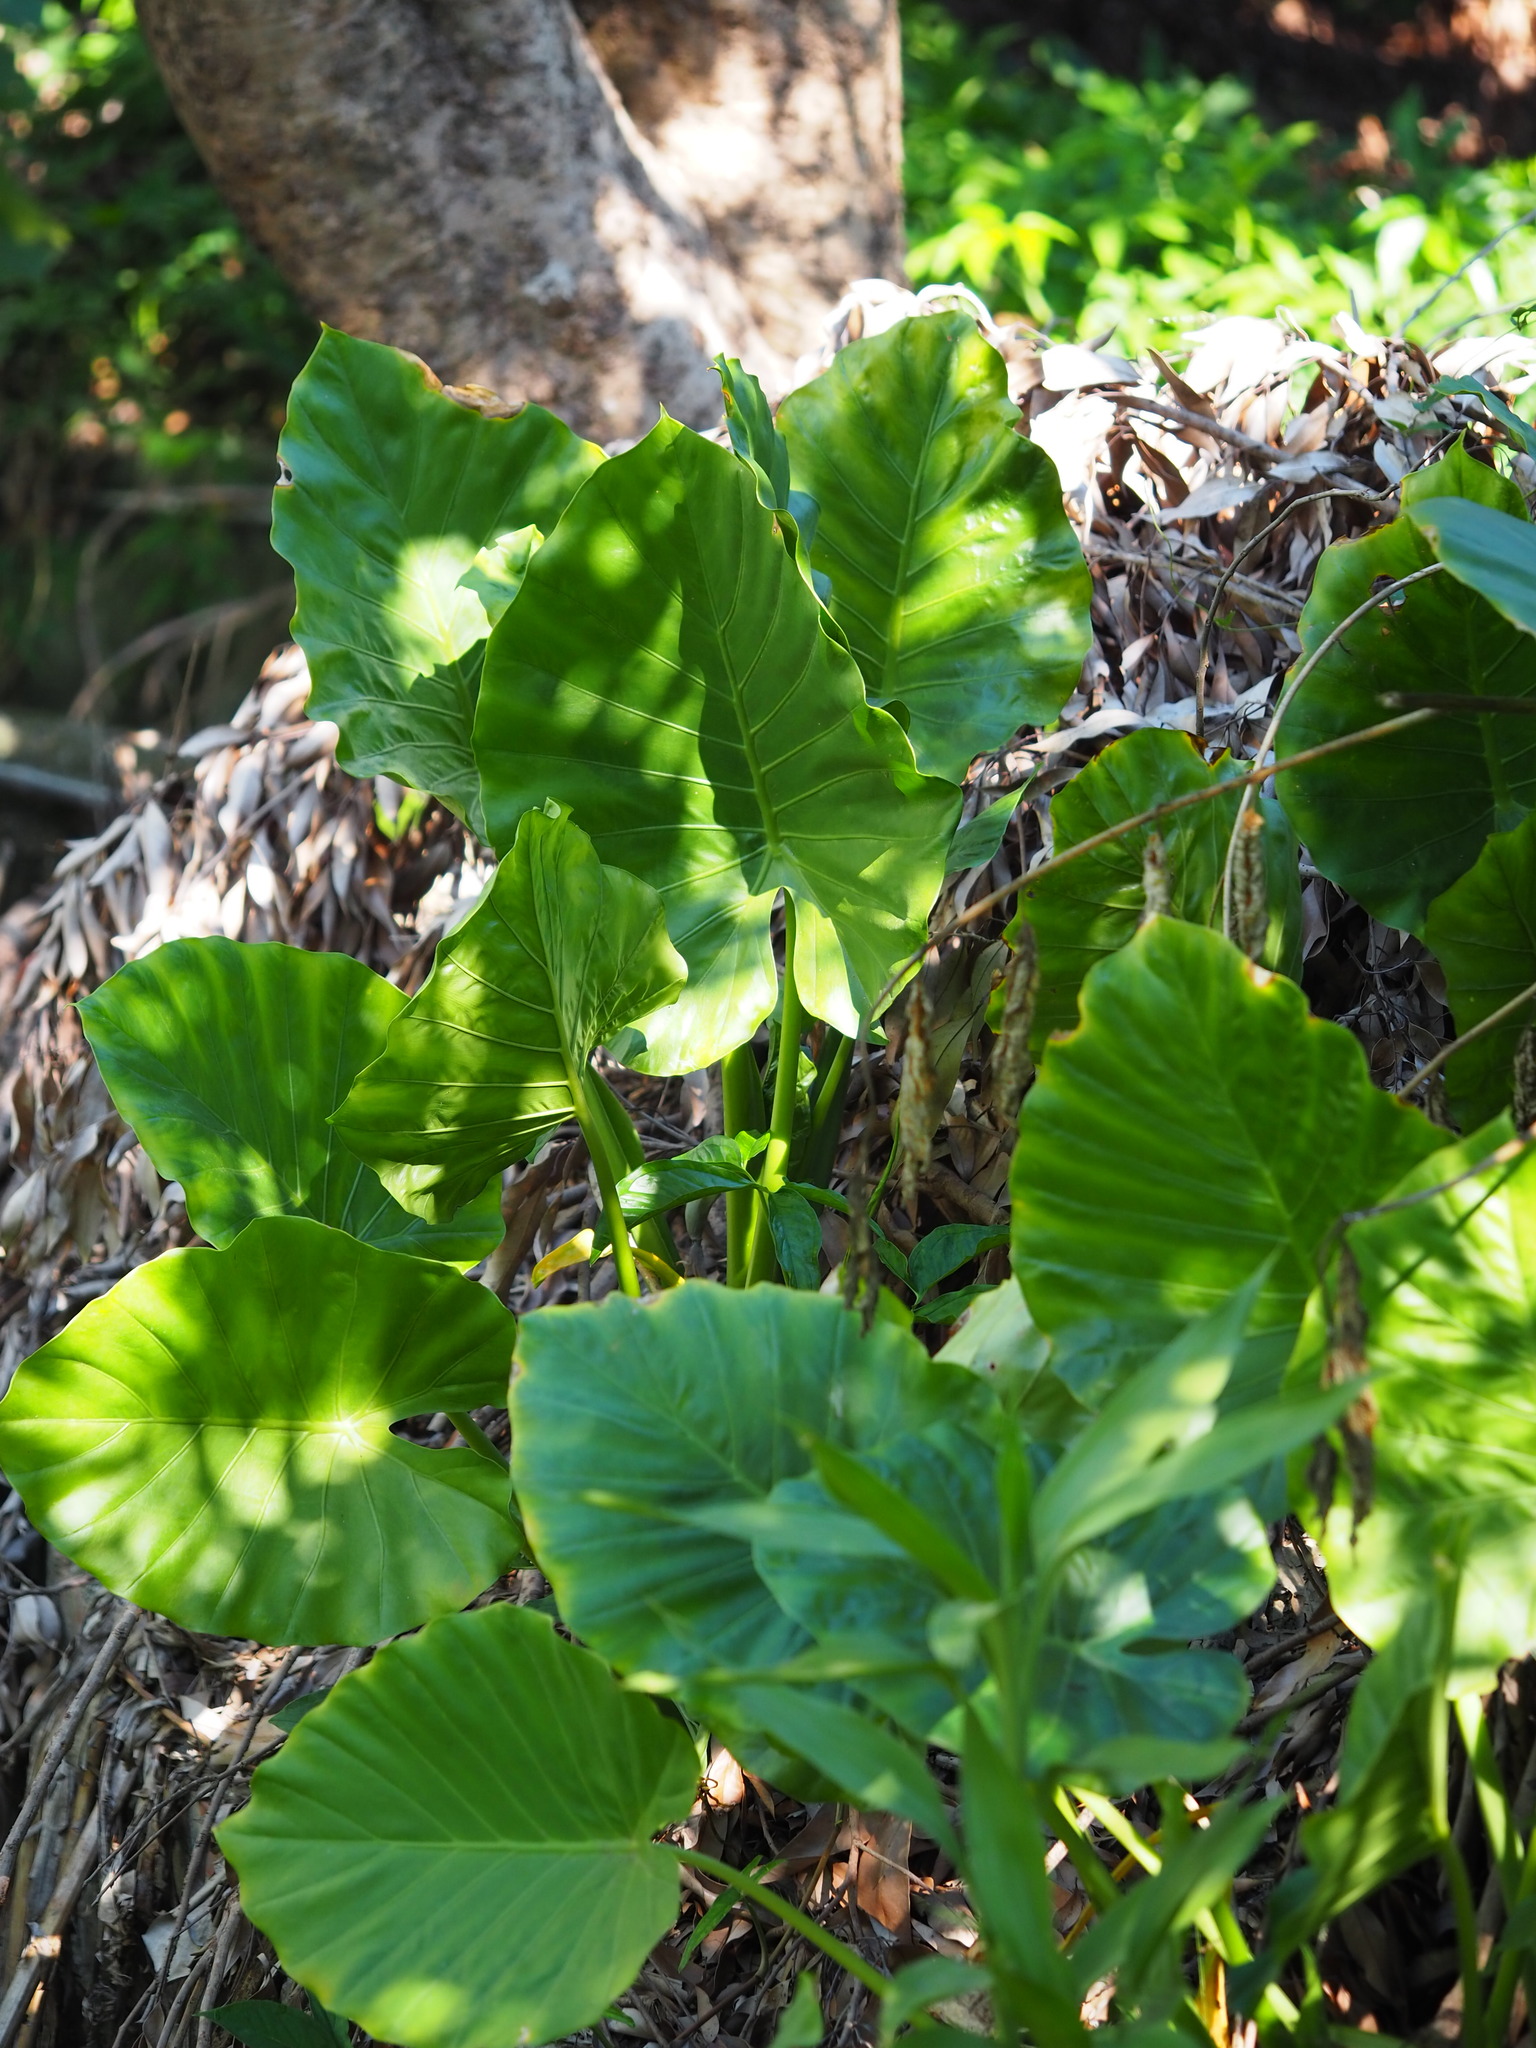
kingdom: Plantae
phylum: Tracheophyta
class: Liliopsida
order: Alismatales
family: Araceae
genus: Alocasia
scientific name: Alocasia odora
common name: Asian taro
